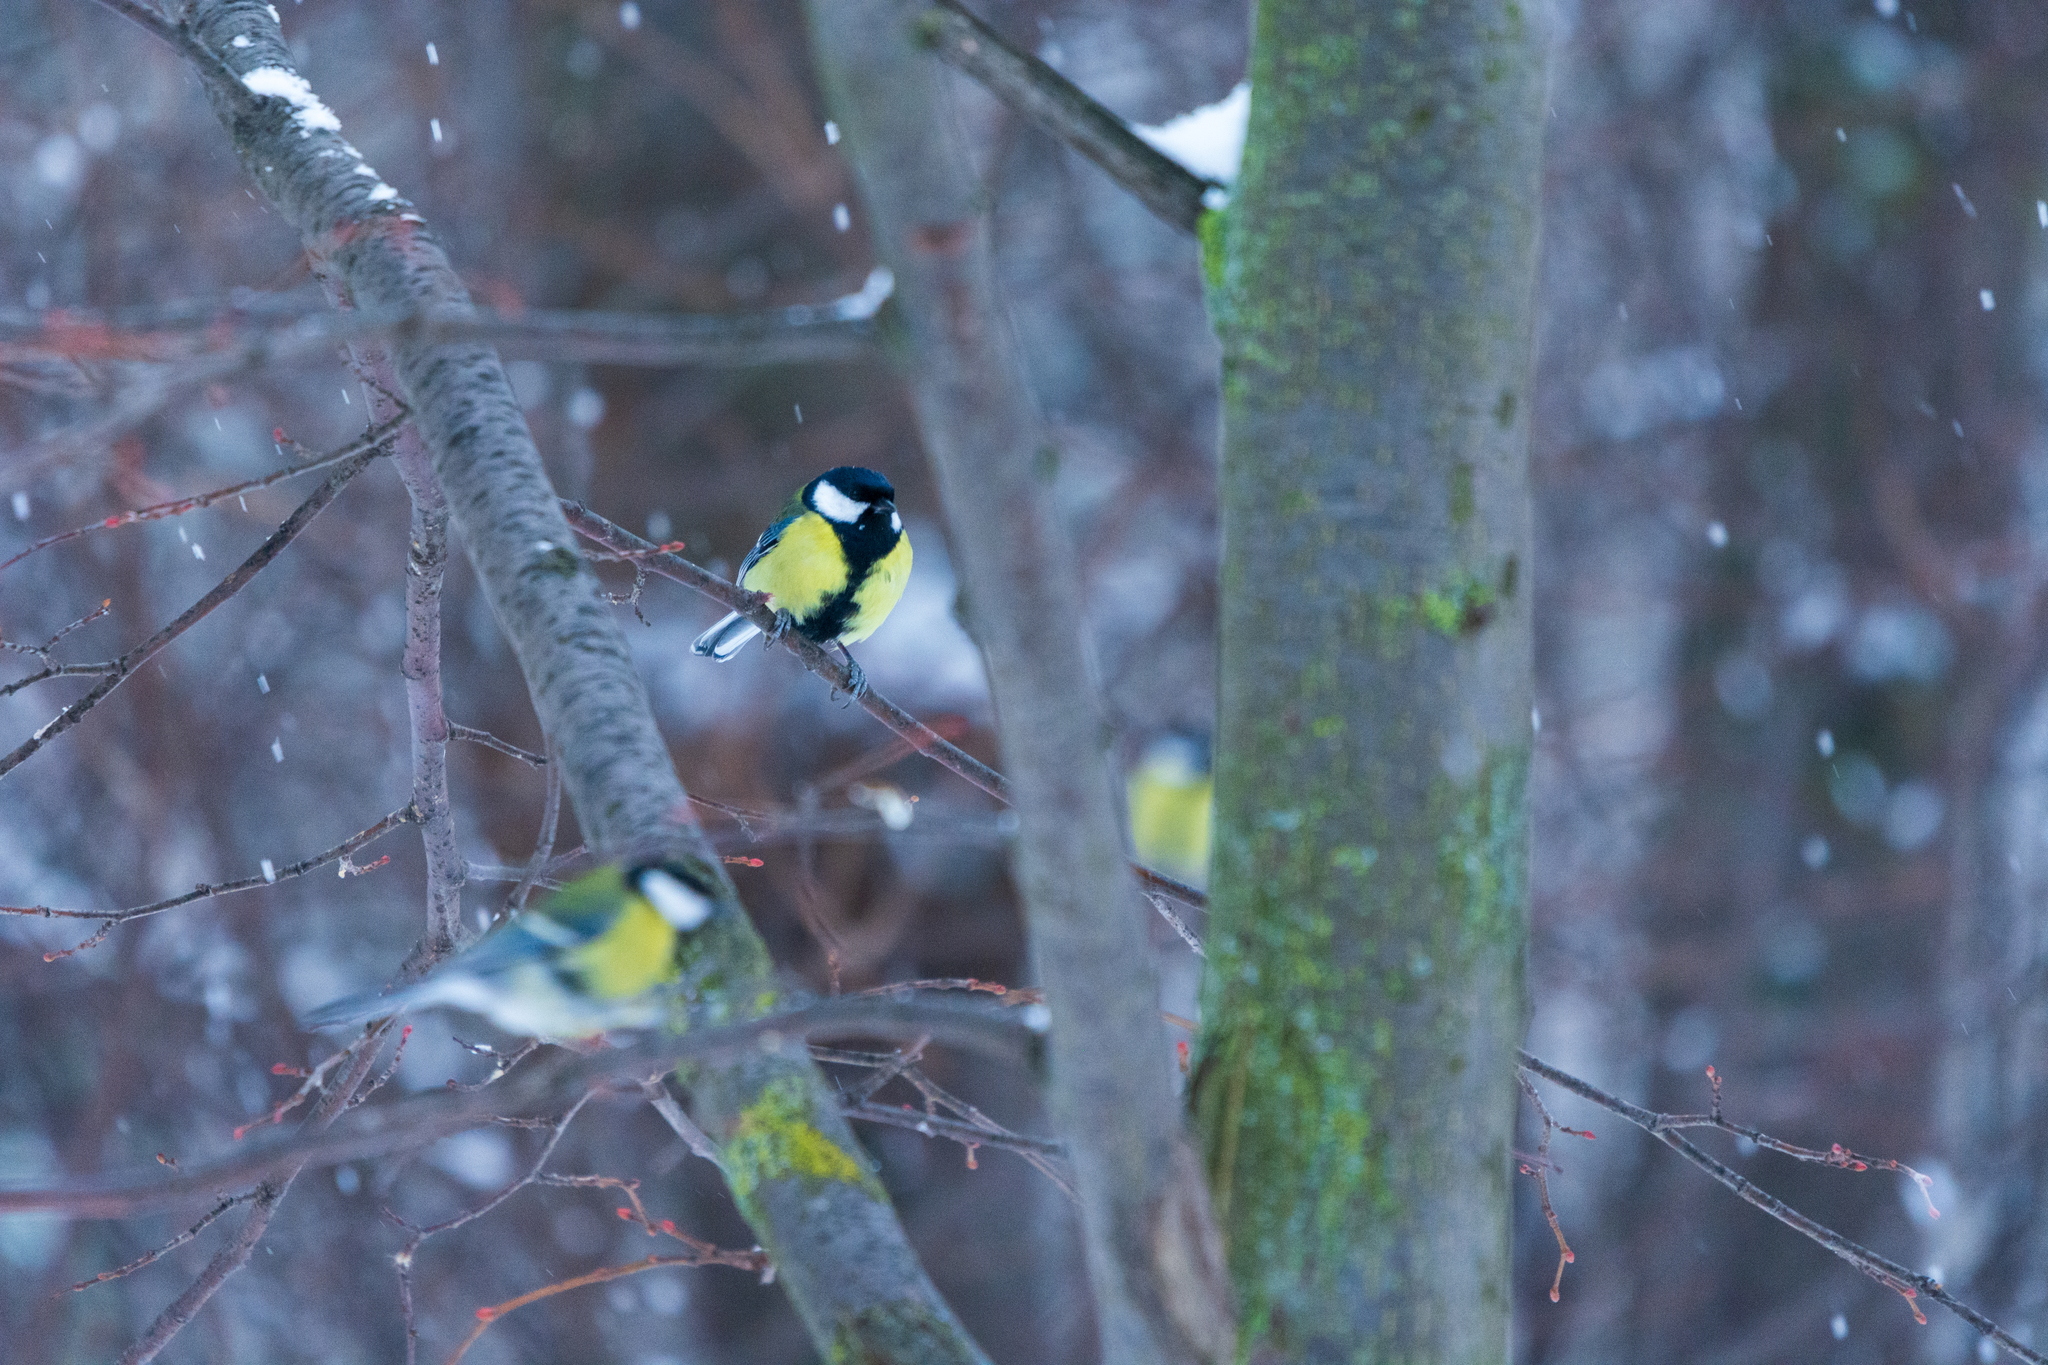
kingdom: Animalia
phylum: Chordata
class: Aves
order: Passeriformes
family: Paridae
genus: Parus
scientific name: Parus major
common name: Great tit
